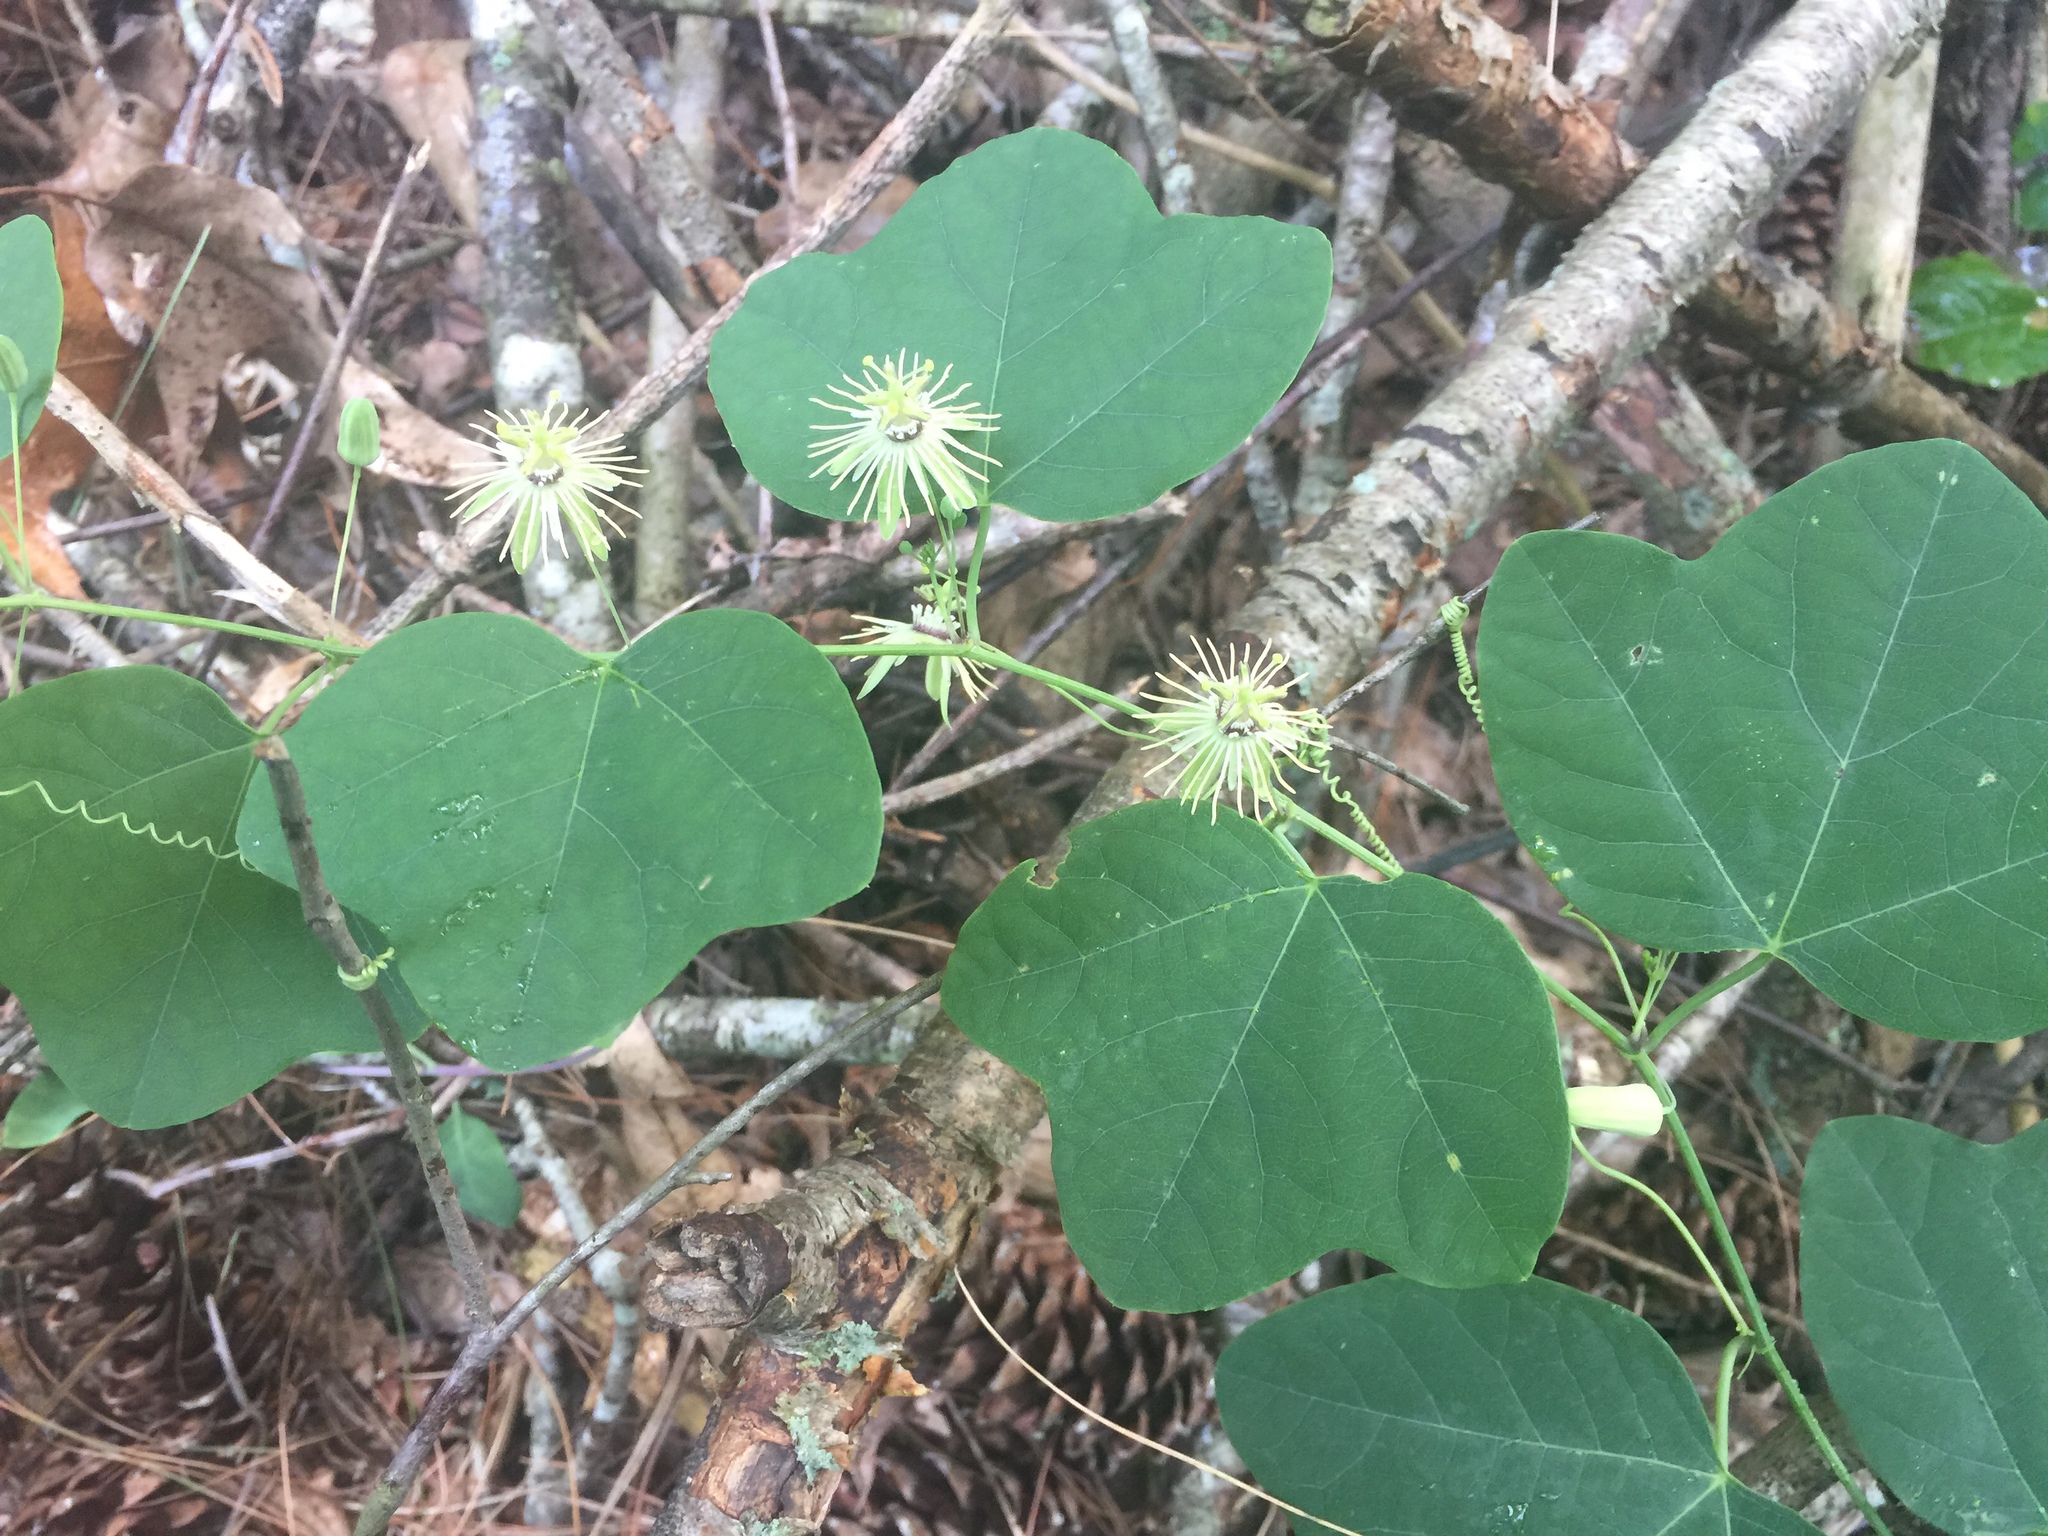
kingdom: Plantae
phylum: Tracheophyta
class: Magnoliopsida
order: Malpighiales
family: Passifloraceae
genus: Passiflora
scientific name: Passiflora lutea
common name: Yellow passionflower
